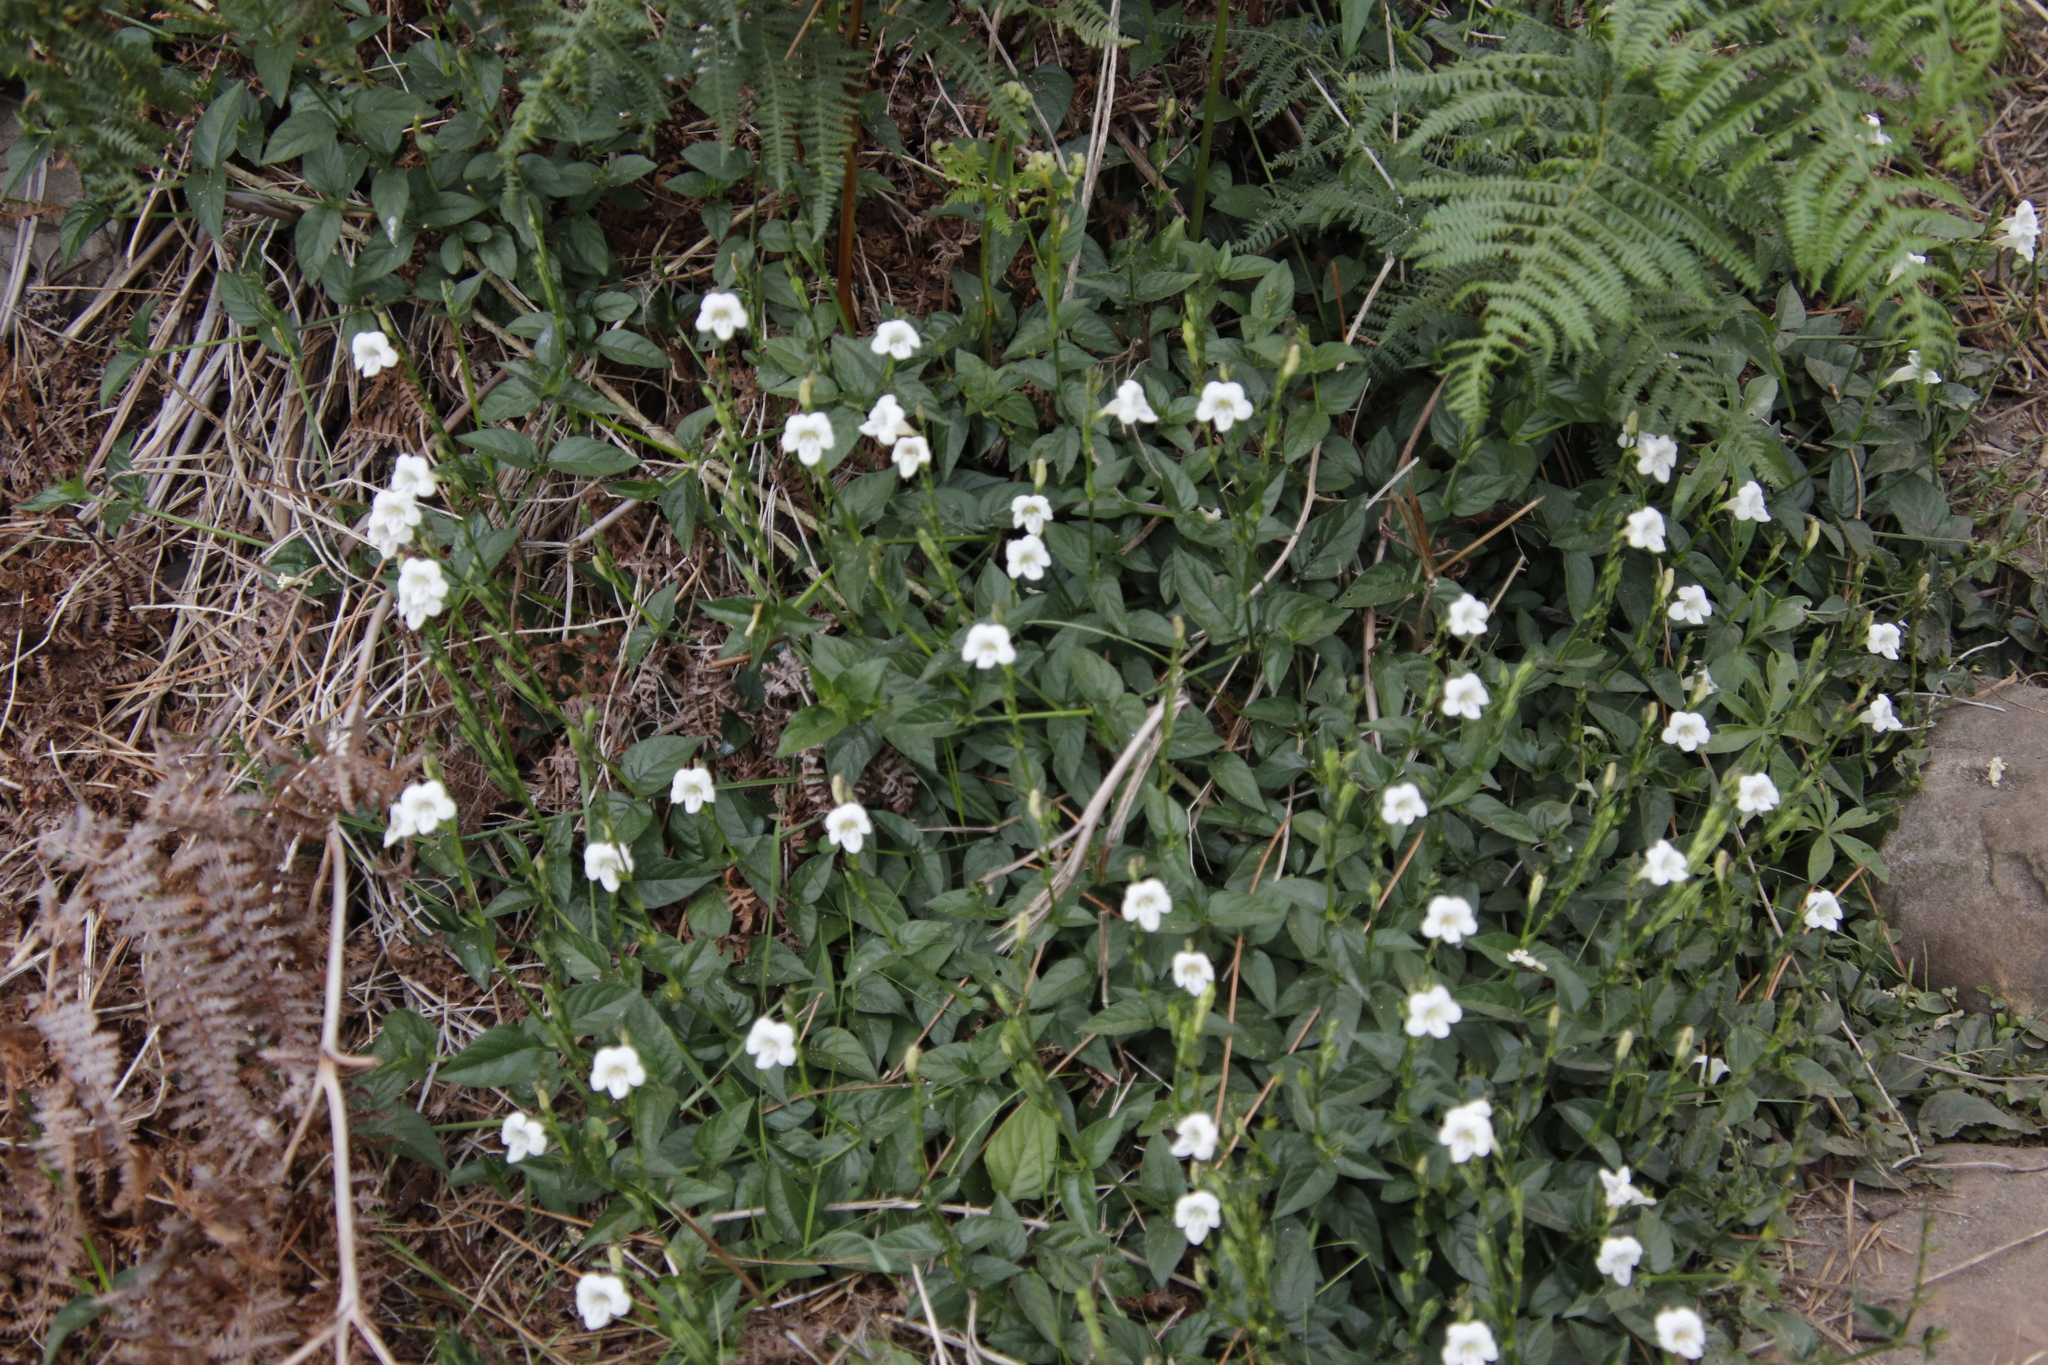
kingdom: Plantae
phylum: Tracheophyta
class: Magnoliopsida
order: Lamiales
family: Acanthaceae
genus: Asystasia
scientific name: Asystasia intrusa
